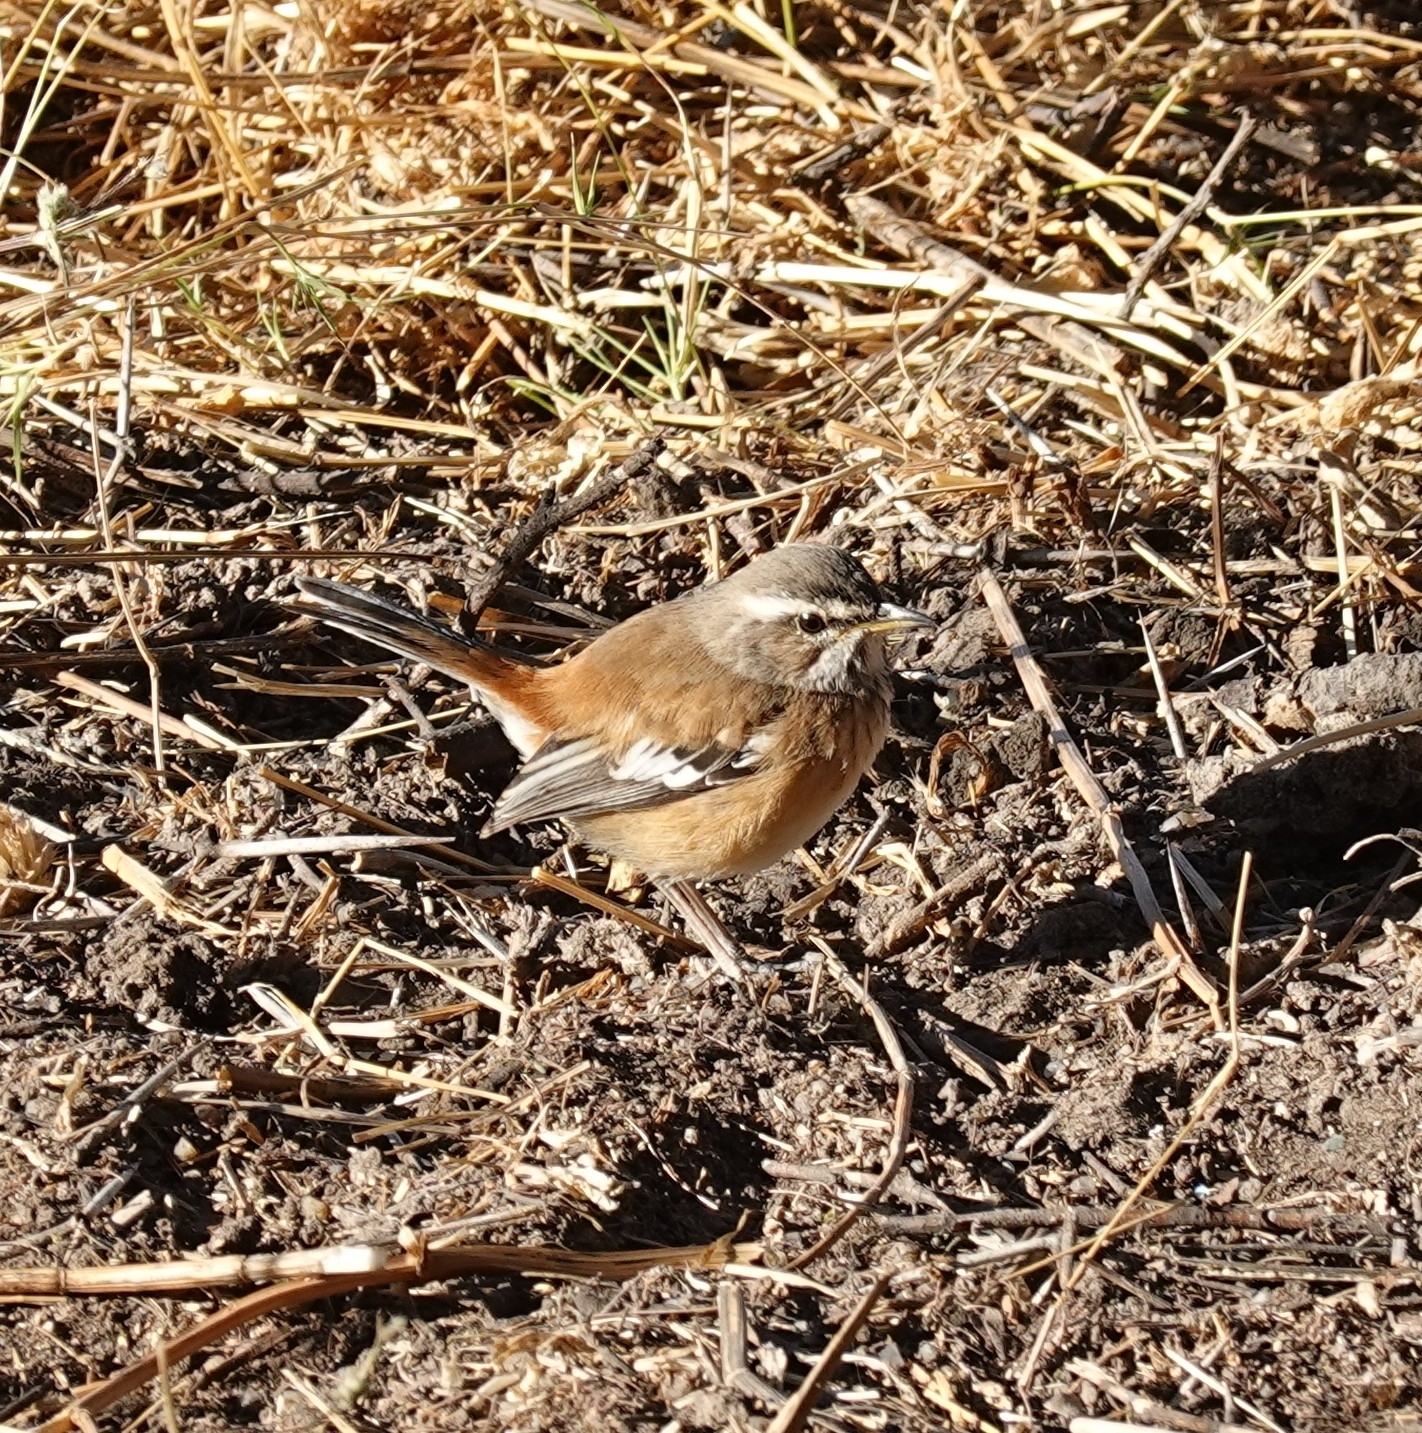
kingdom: Animalia
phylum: Chordata
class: Aves
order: Passeriformes
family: Muscicapidae
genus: Erythropygia
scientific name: Erythropygia leucophrys
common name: White-browed scrub robin
